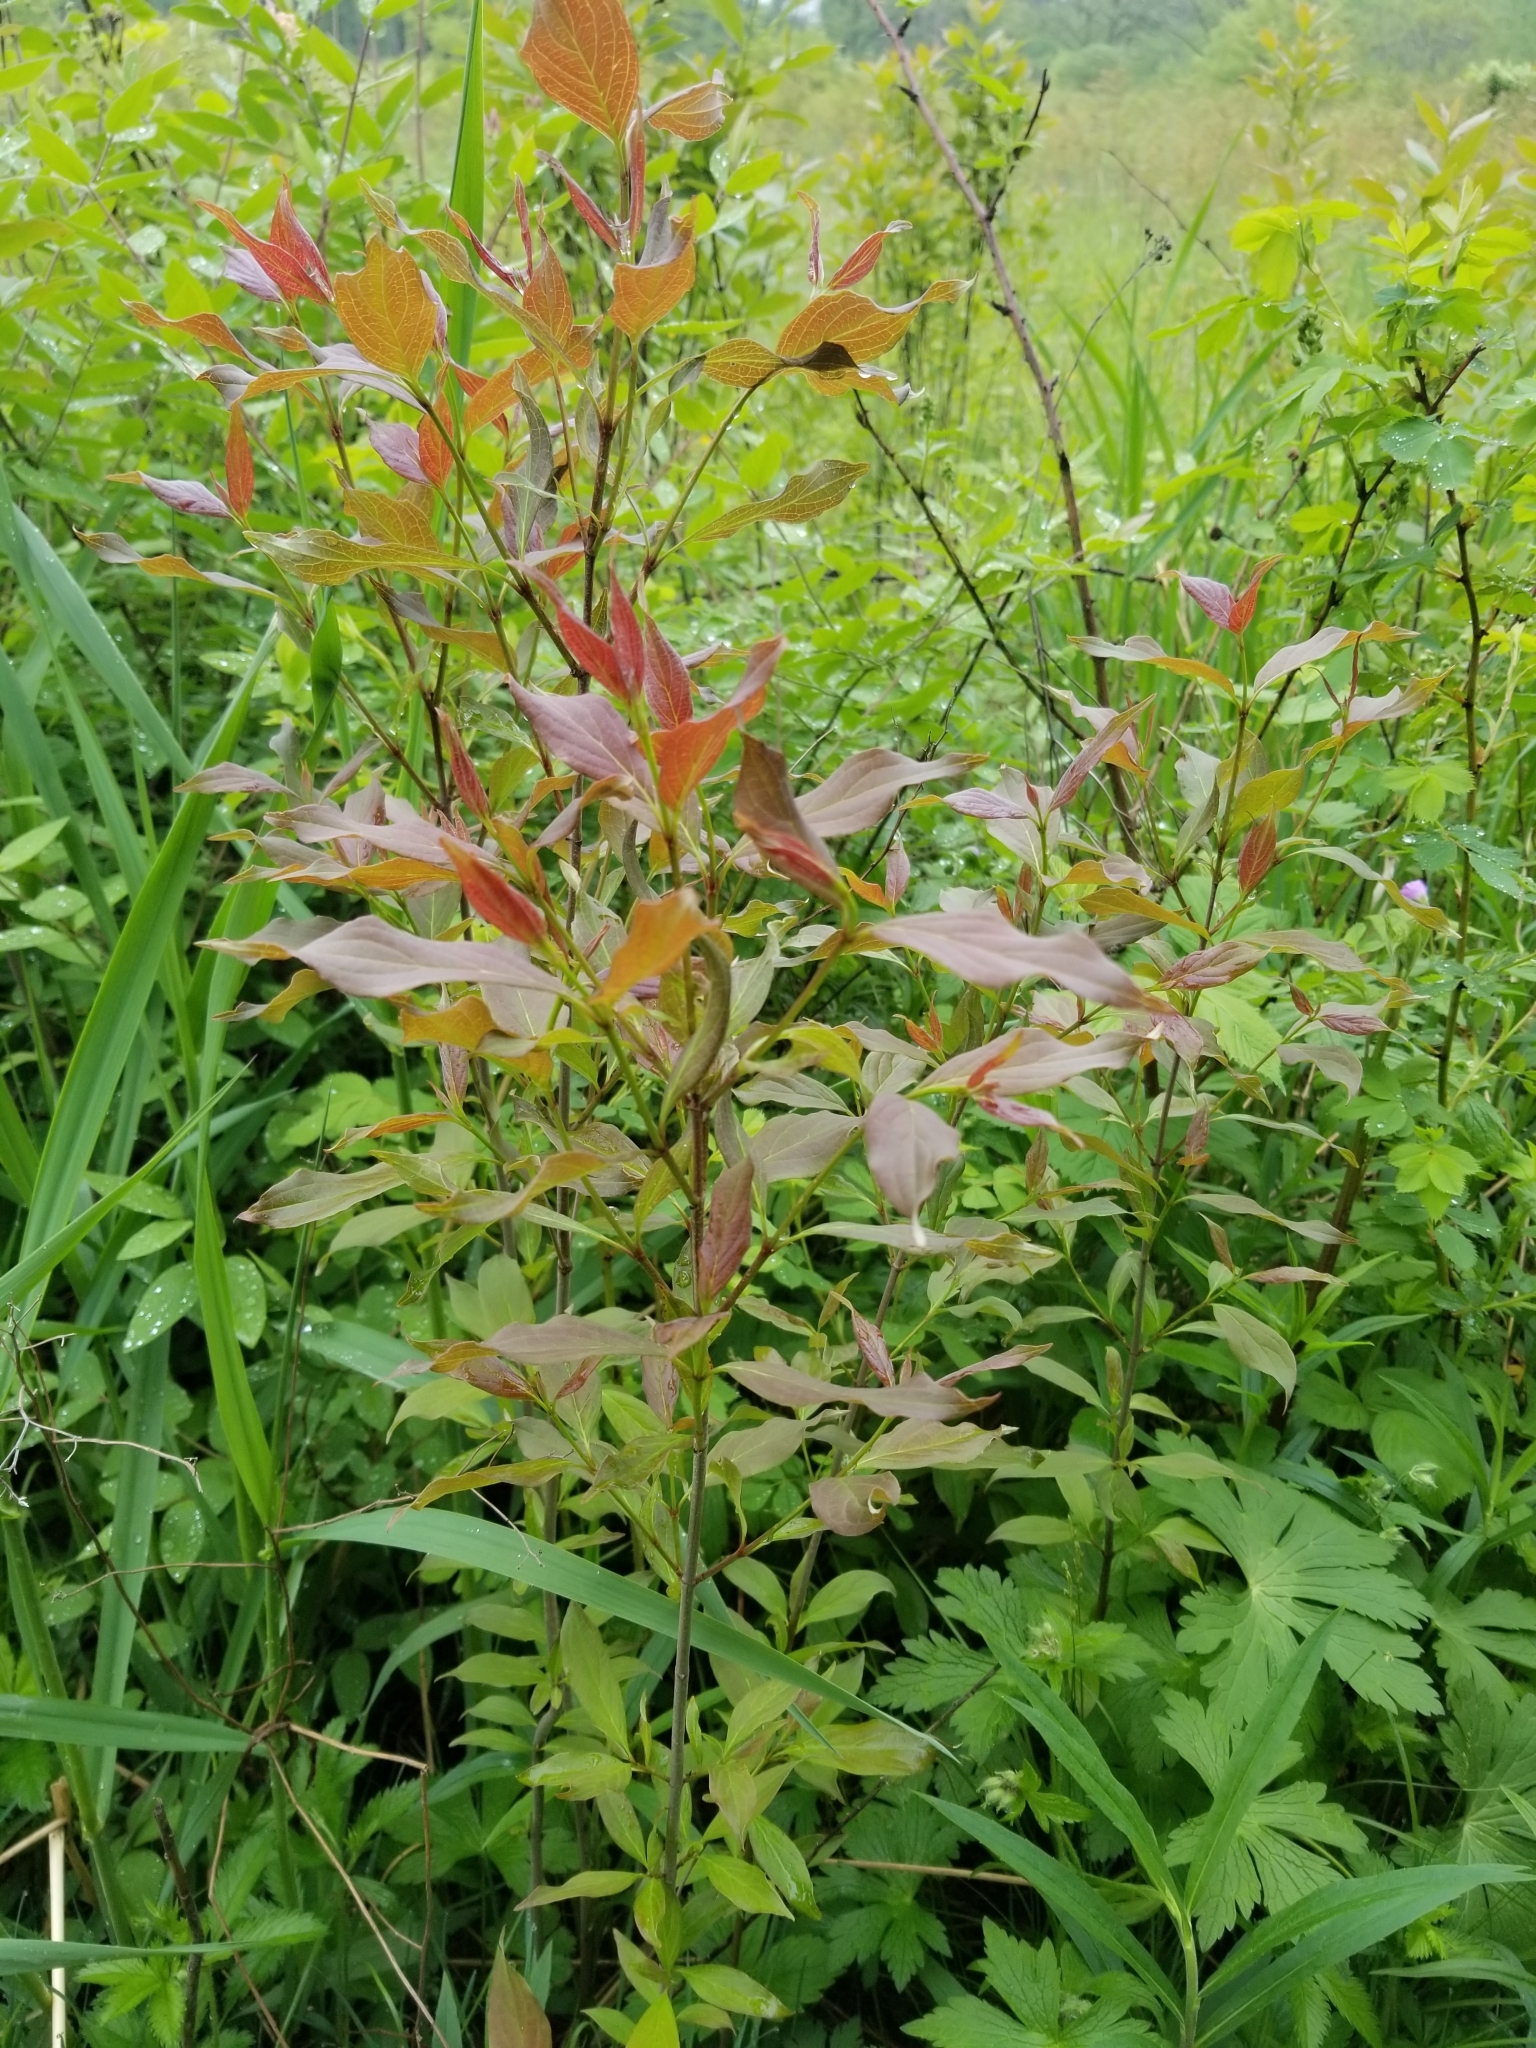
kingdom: Plantae
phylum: Tracheophyta
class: Magnoliopsida
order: Cornales
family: Cornaceae
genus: Cornus
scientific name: Cornus racemosa
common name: Panicled dogwood
